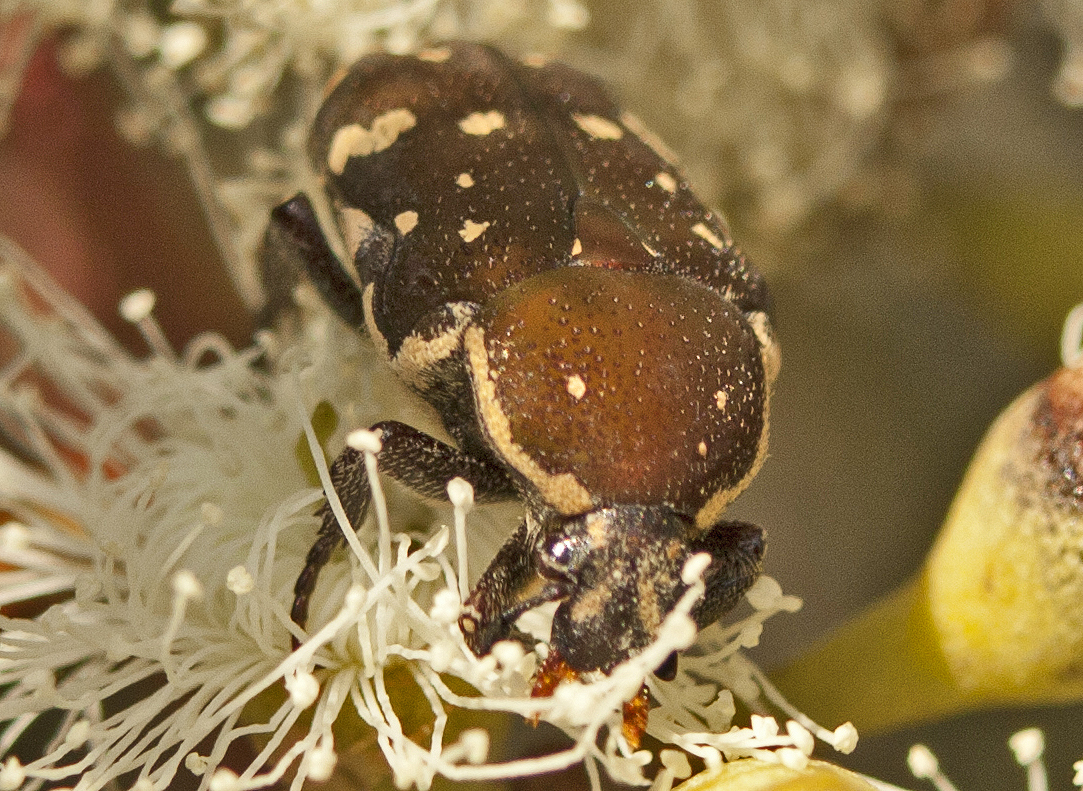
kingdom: Animalia
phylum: Arthropoda
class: Insecta
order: Coleoptera
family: Scarabaeidae
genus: Glycyphana
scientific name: Glycyphana stolata
